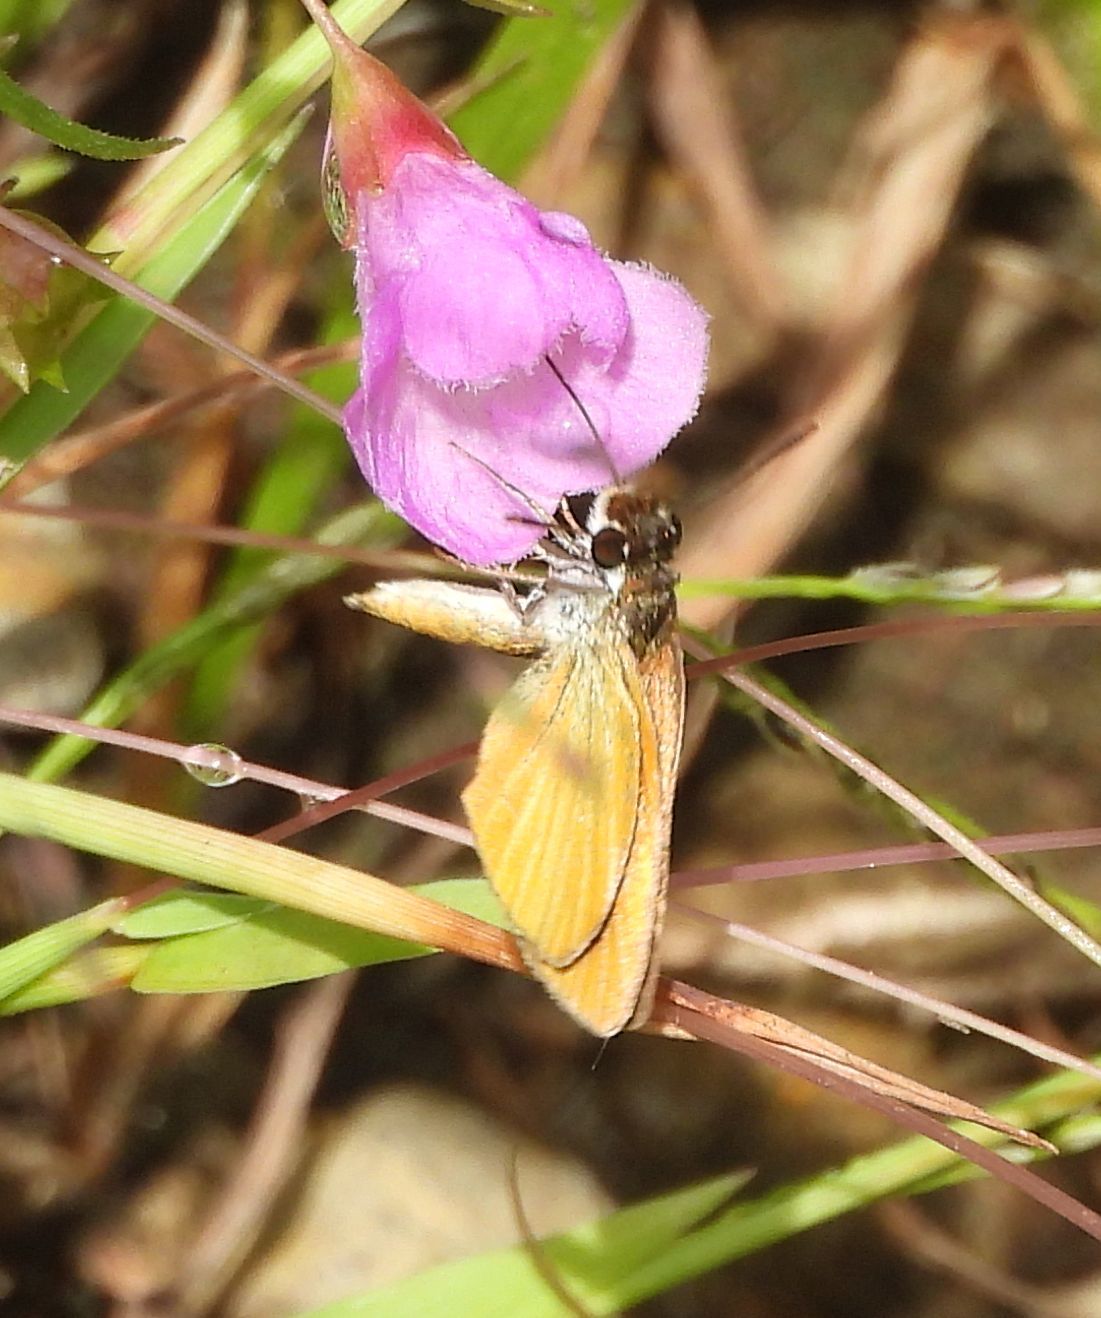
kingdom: Animalia
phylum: Arthropoda
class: Insecta
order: Lepidoptera
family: Hesperiidae
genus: Ancyloxypha
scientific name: Ancyloxypha numitor
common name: Least skipper
